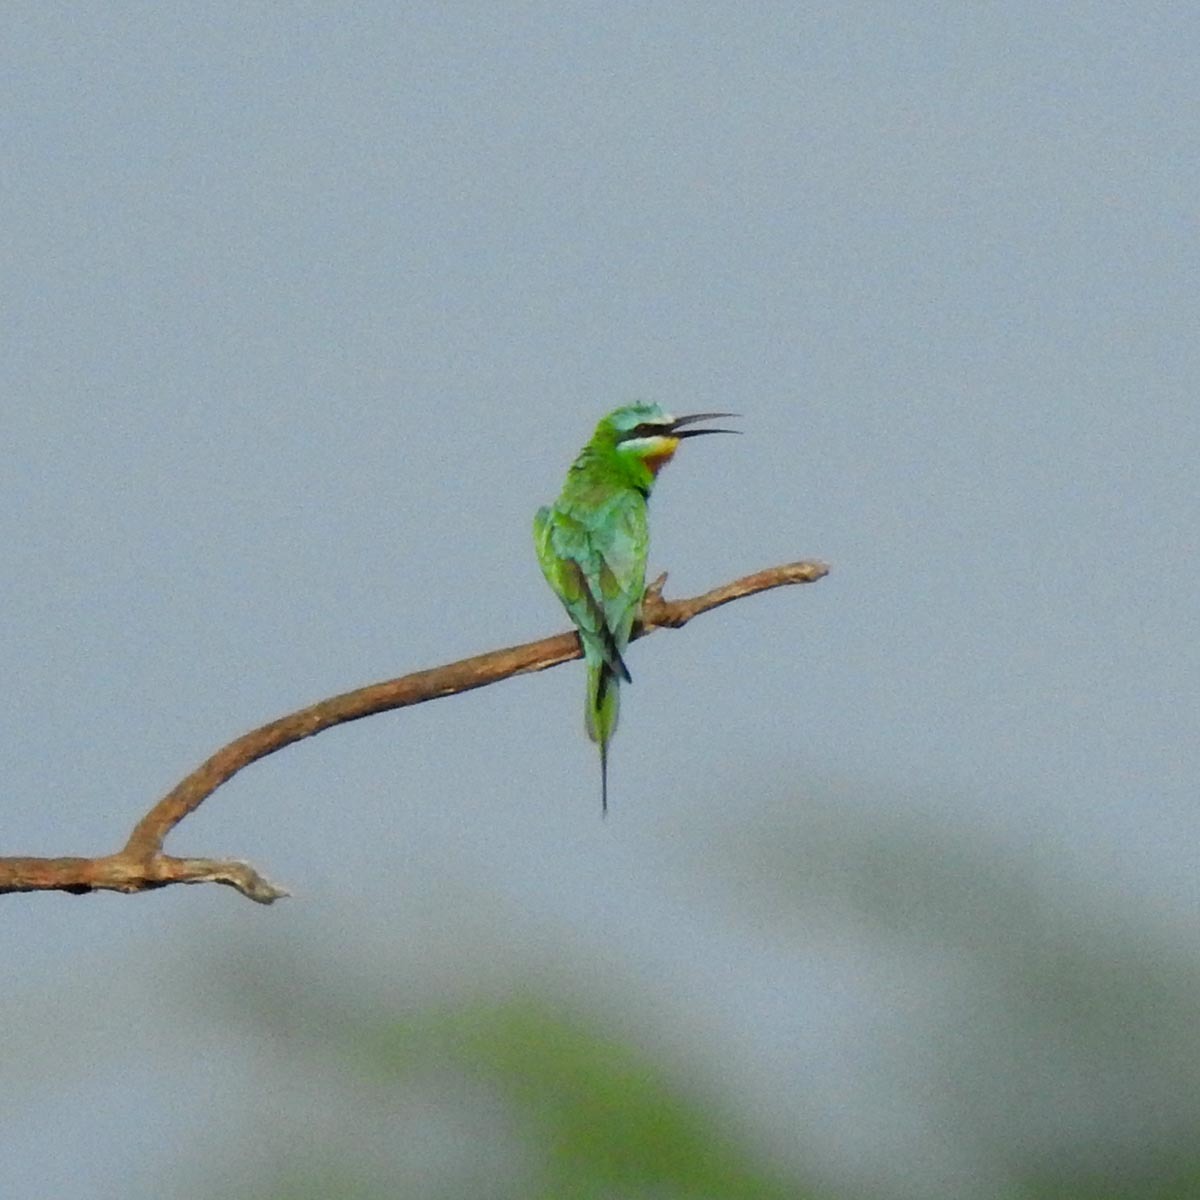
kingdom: Animalia
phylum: Chordata
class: Aves
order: Coraciiformes
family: Meropidae
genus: Merops
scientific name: Merops persicus
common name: Blue-cheeked bee-eater
